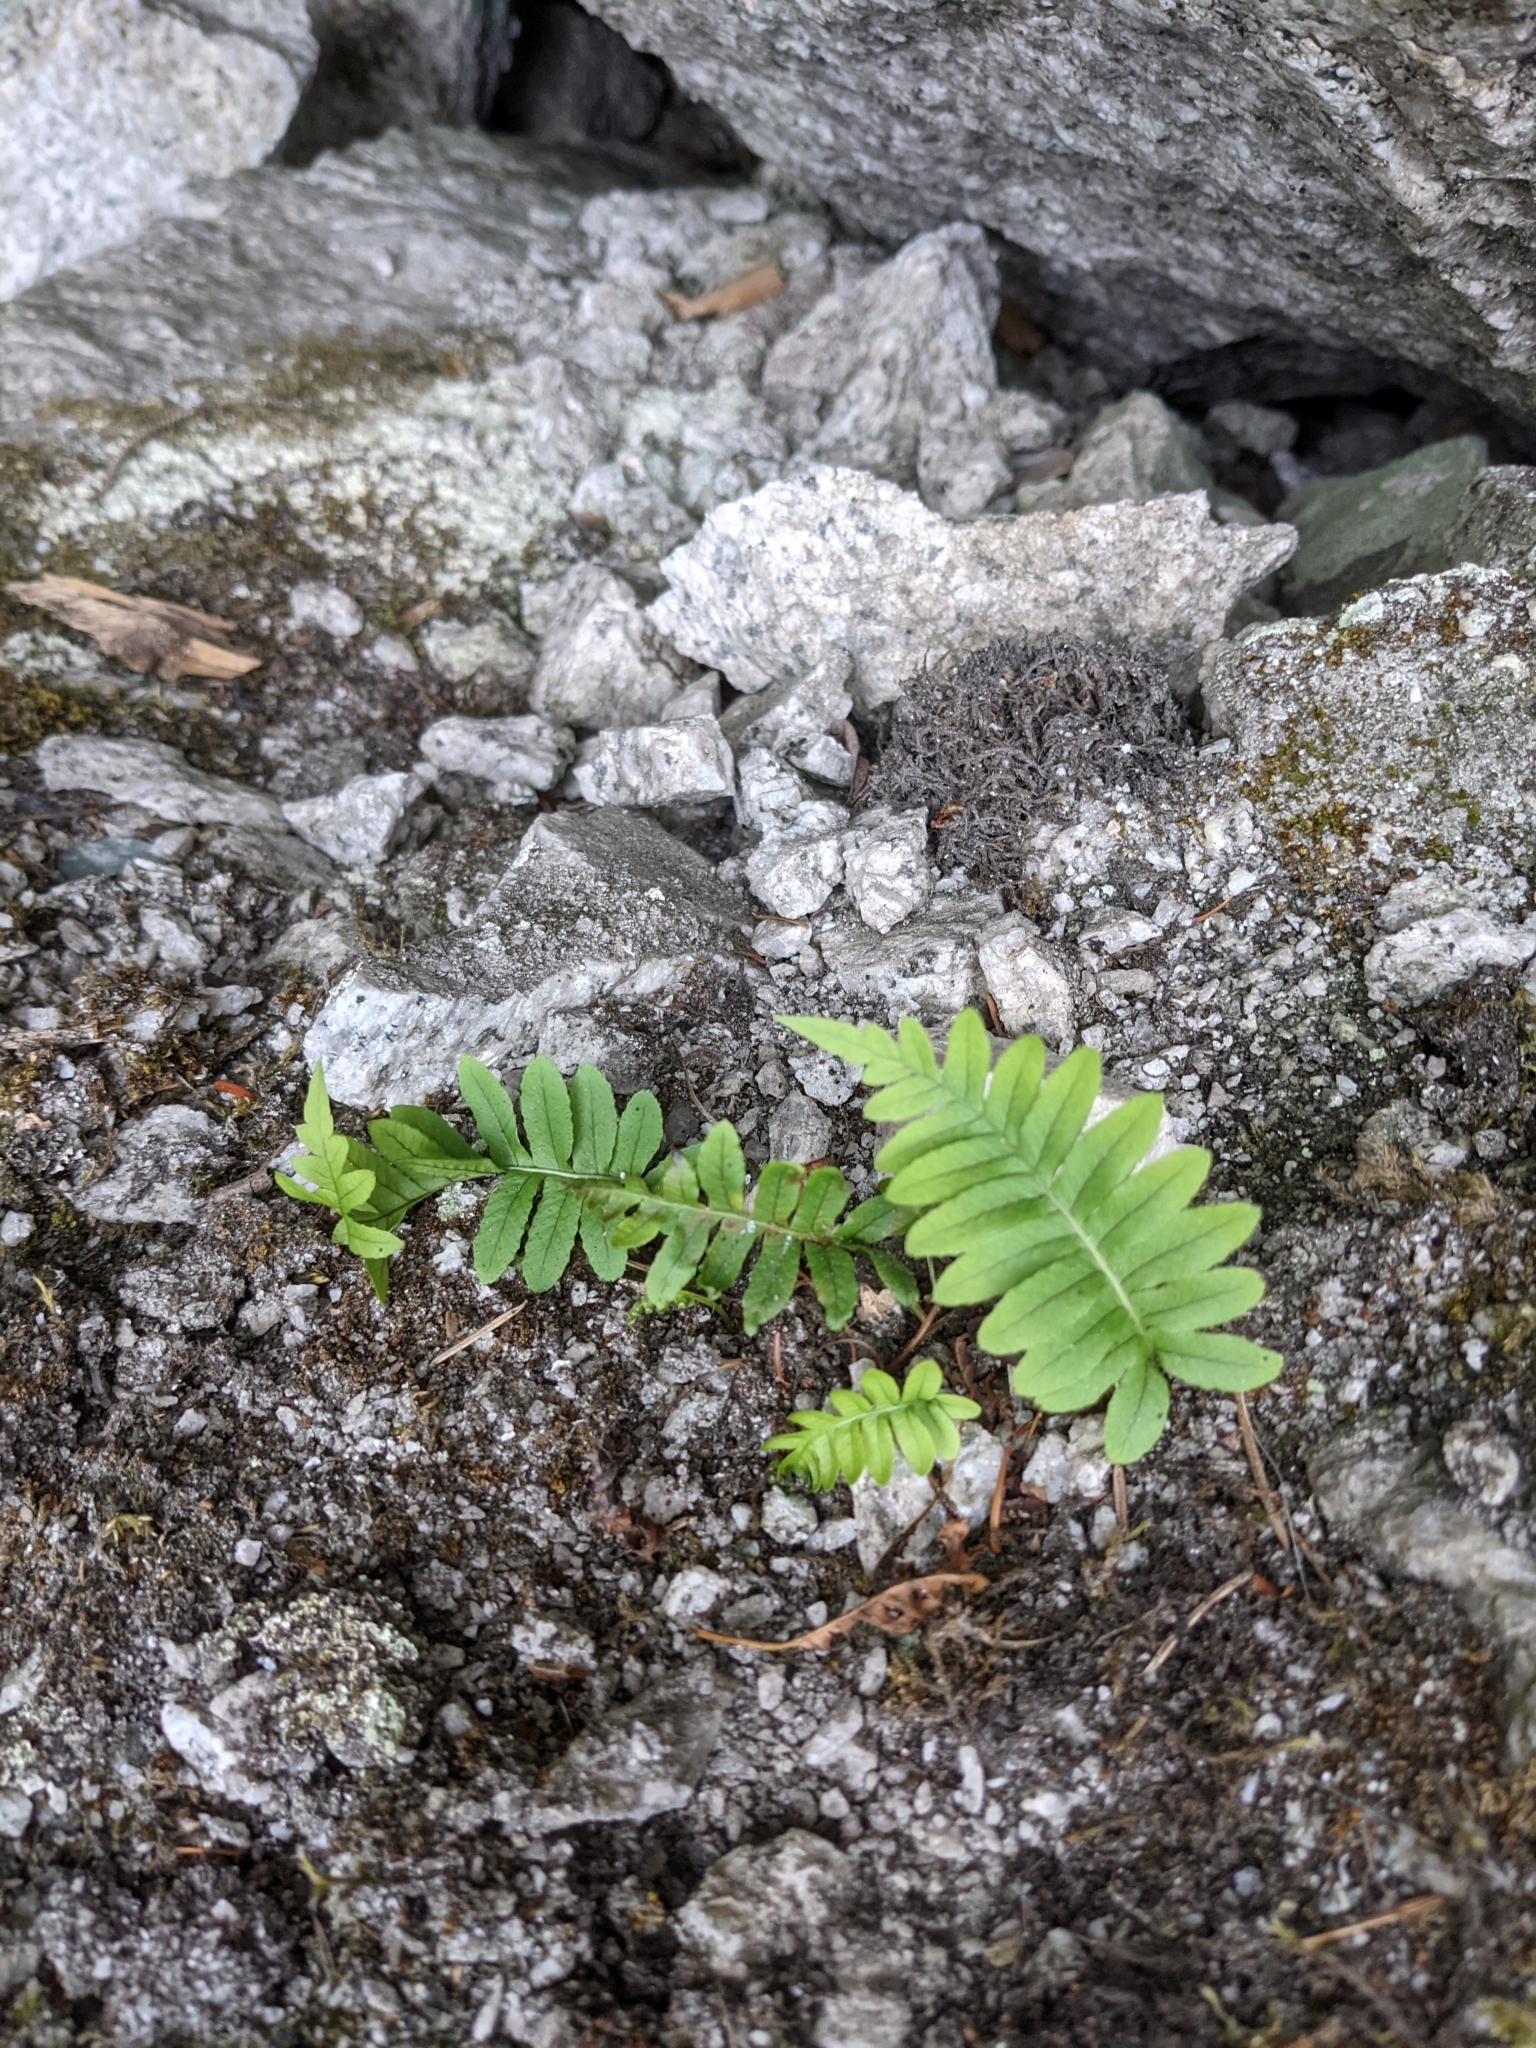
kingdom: Plantae
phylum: Tracheophyta
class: Polypodiopsida
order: Polypodiales
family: Polypodiaceae
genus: Polypodium
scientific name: Polypodium glycyrrhiza
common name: Licorice fern
